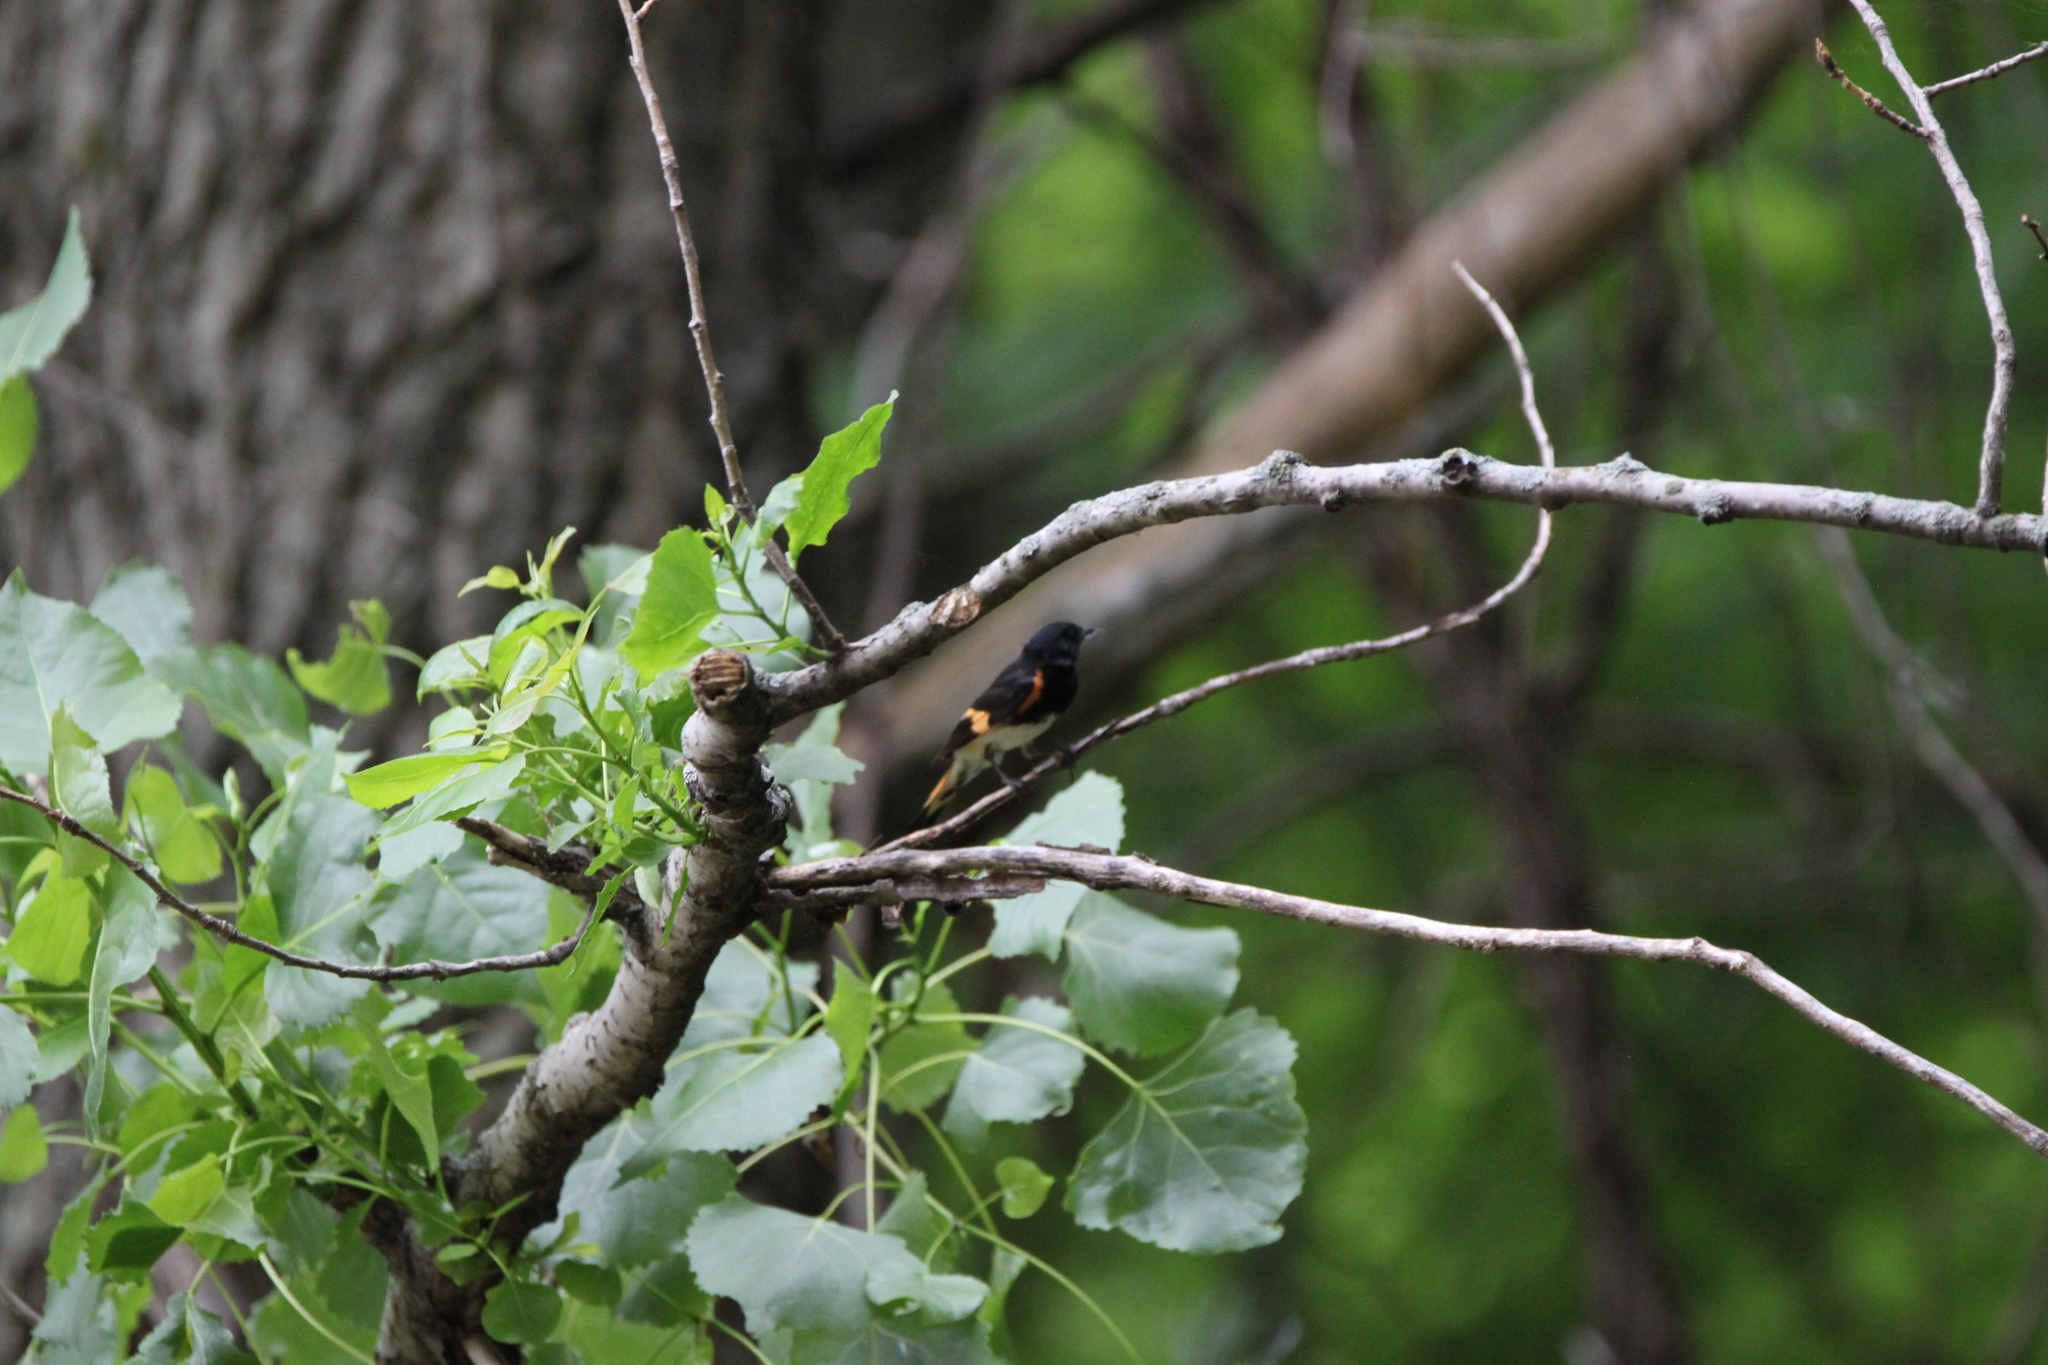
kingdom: Animalia
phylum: Chordata
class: Aves
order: Passeriformes
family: Parulidae
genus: Setophaga
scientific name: Setophaga ruticilla
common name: American redstart
